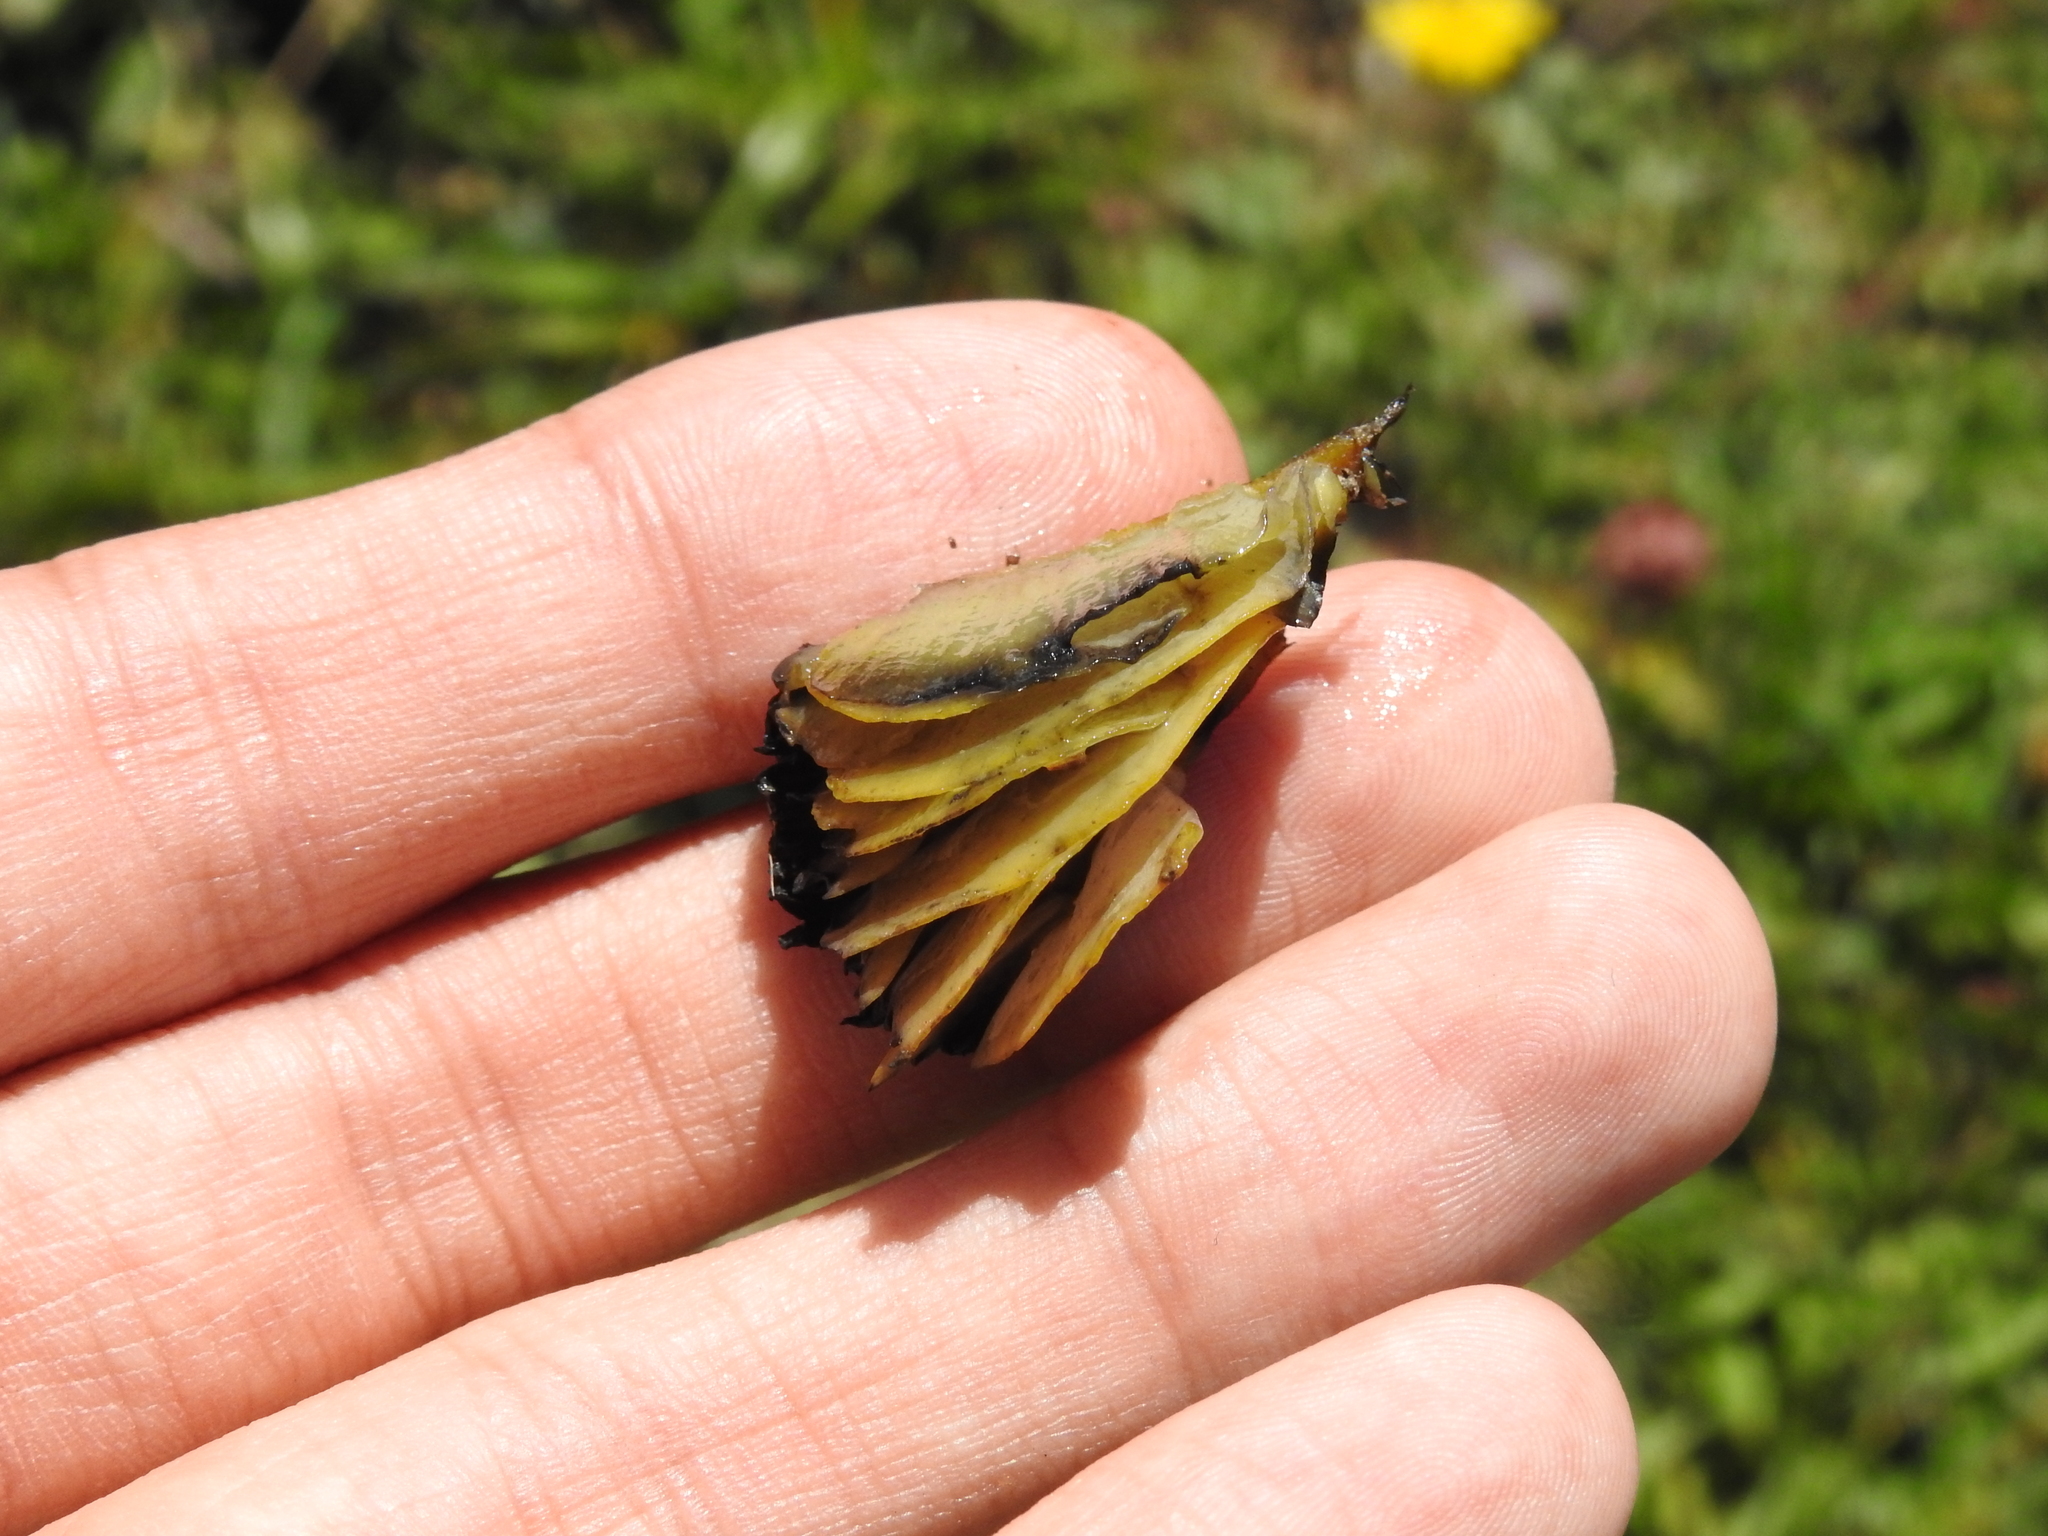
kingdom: Fungi
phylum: Basidiomycota
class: Agaricomycetes
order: Agaricales
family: Hygrophoraceae
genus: Hygrocybe
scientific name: Hygrocybe conica
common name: Blackening wax-cap
